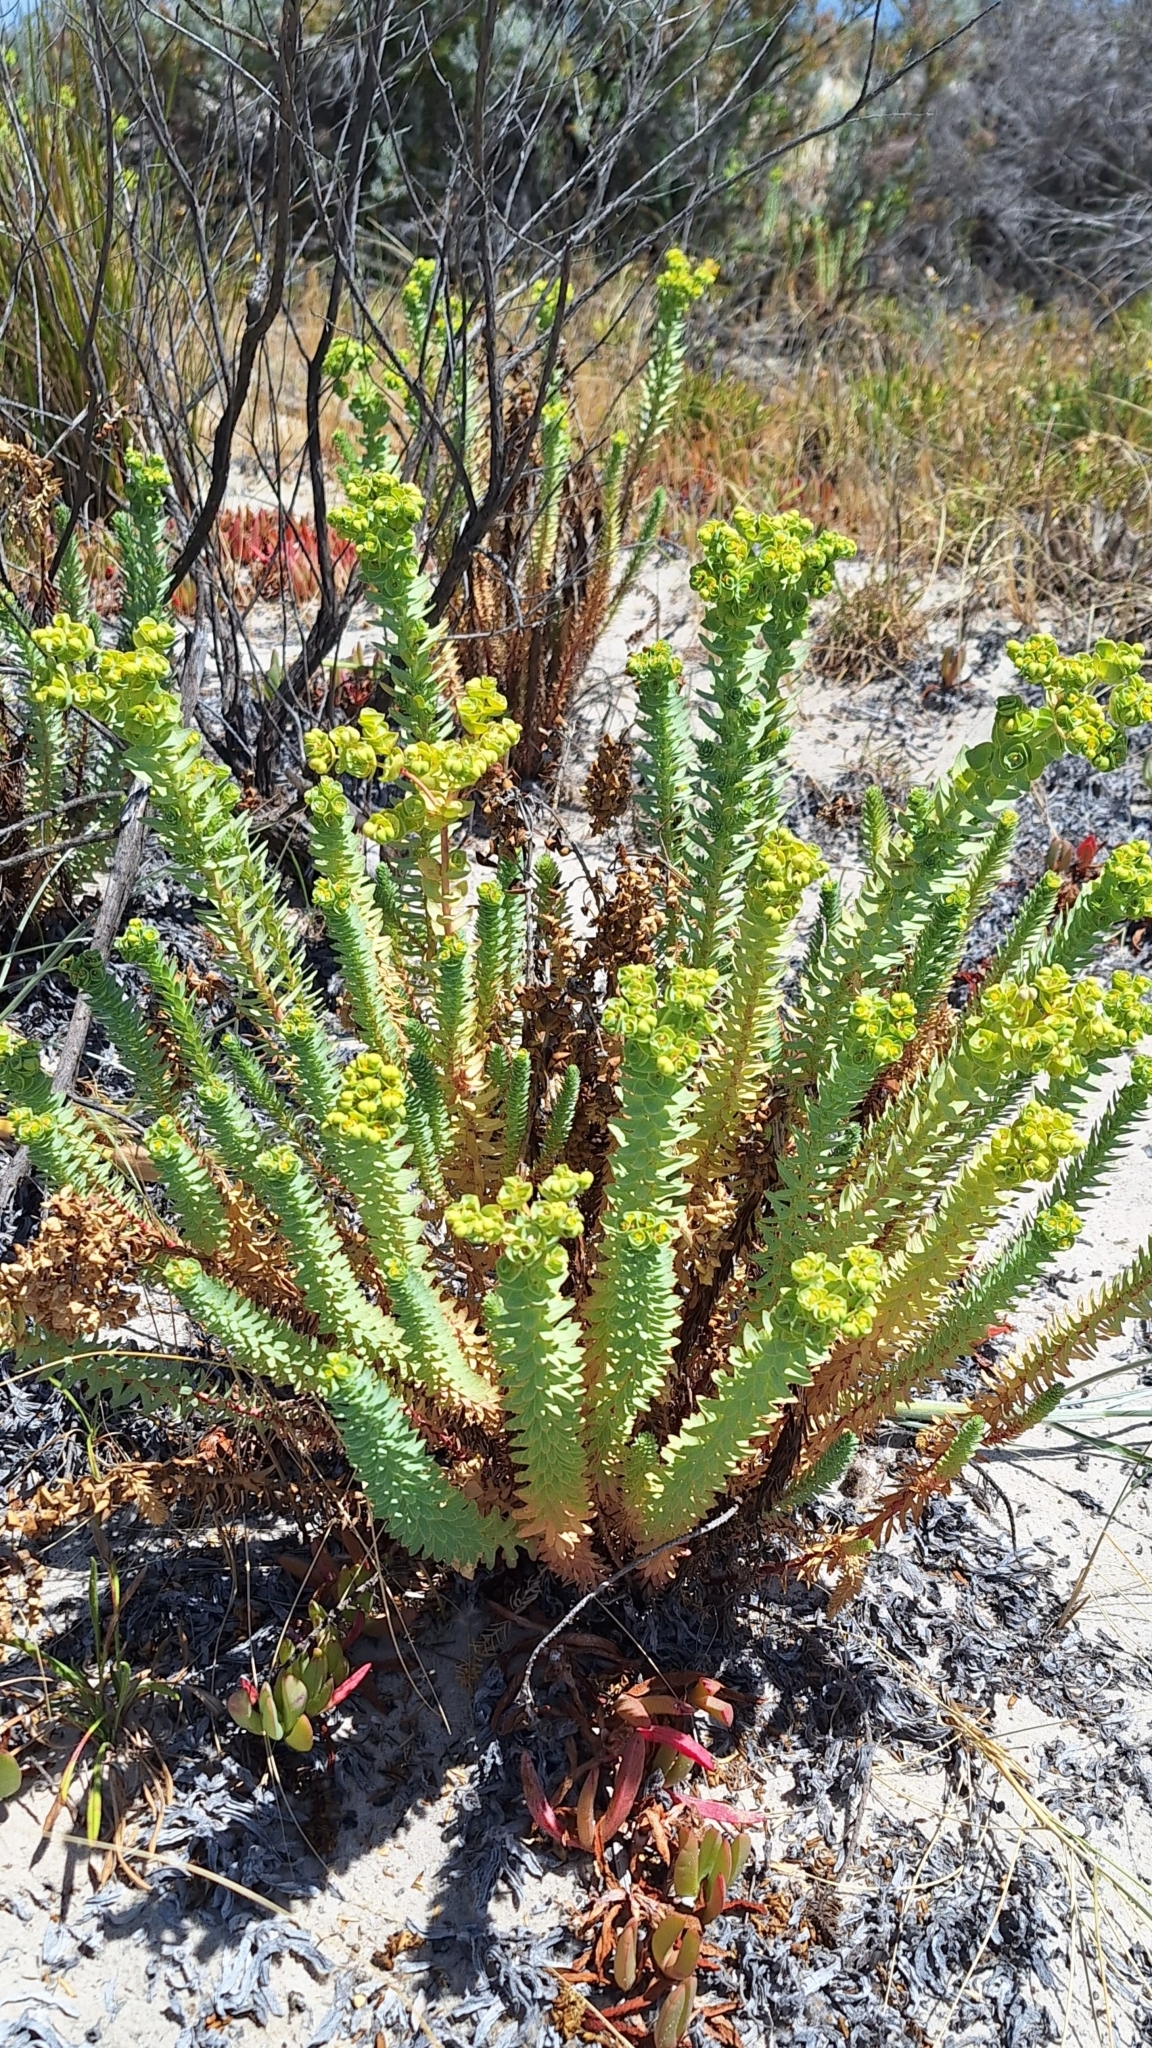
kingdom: Plantae
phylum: Tracheophyta
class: Magnoliopsida
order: Malpighiales
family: Euphorbiaceae
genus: Euphorbia
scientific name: Euphorbia paralias
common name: Sea spurge
